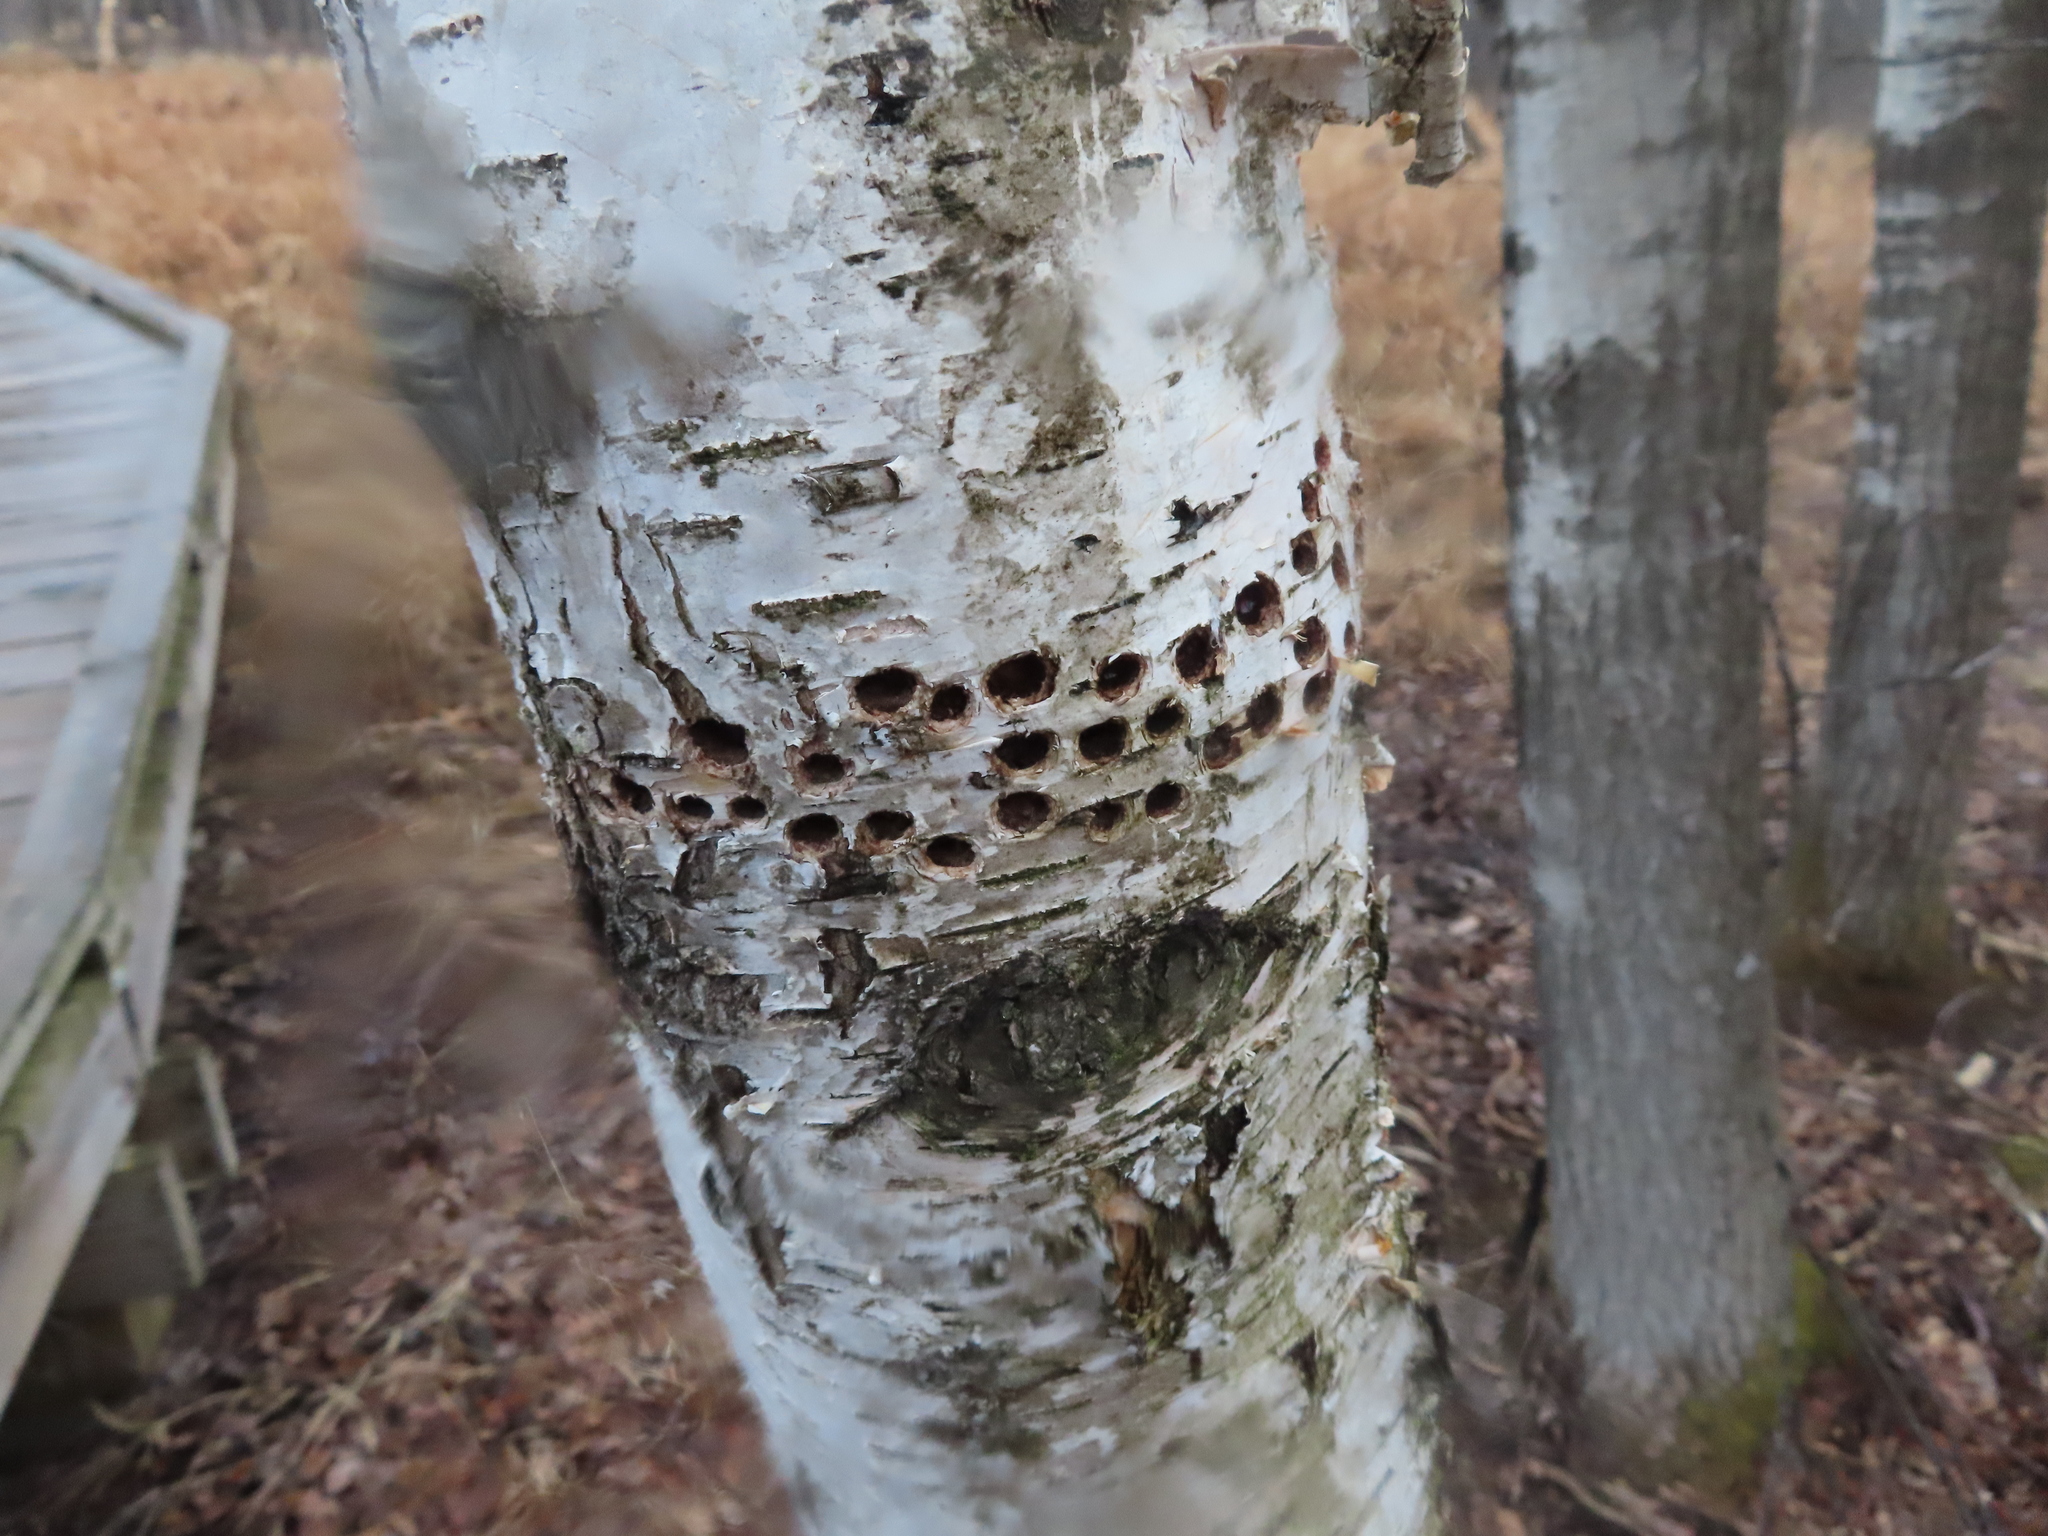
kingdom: Animalia
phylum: Chordata
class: Aves
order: Piciformes
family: Picidae
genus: Sphyrapicus
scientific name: Sphyrapicus varius
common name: Yellow-bellied sapsucker
